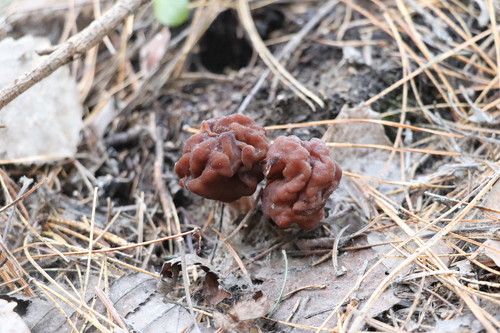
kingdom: Fungi
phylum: Ascomycota
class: Pezizomycetes
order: Pezizales
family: Discinaceae
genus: Gyromitra
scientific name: Gyromitra
